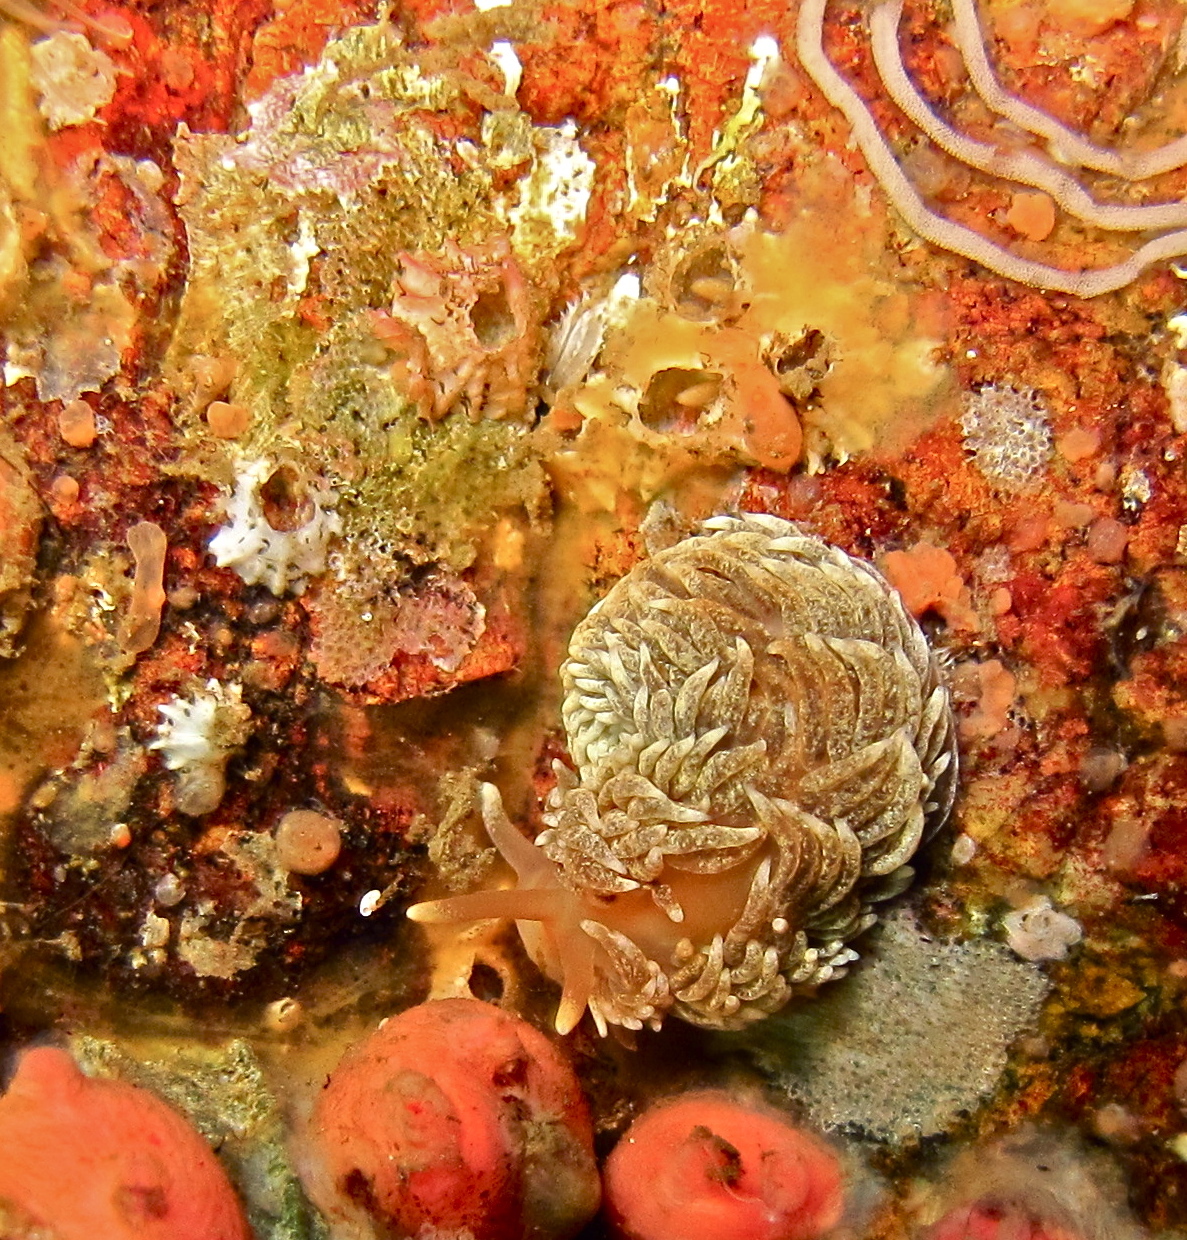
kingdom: Animalia
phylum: Mollusca
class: Gastropoda
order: Nudibranchia
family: Aeolidiidae
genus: Aeolidiella
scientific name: Aeolidiella glauca
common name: Orange-brown aeolid
